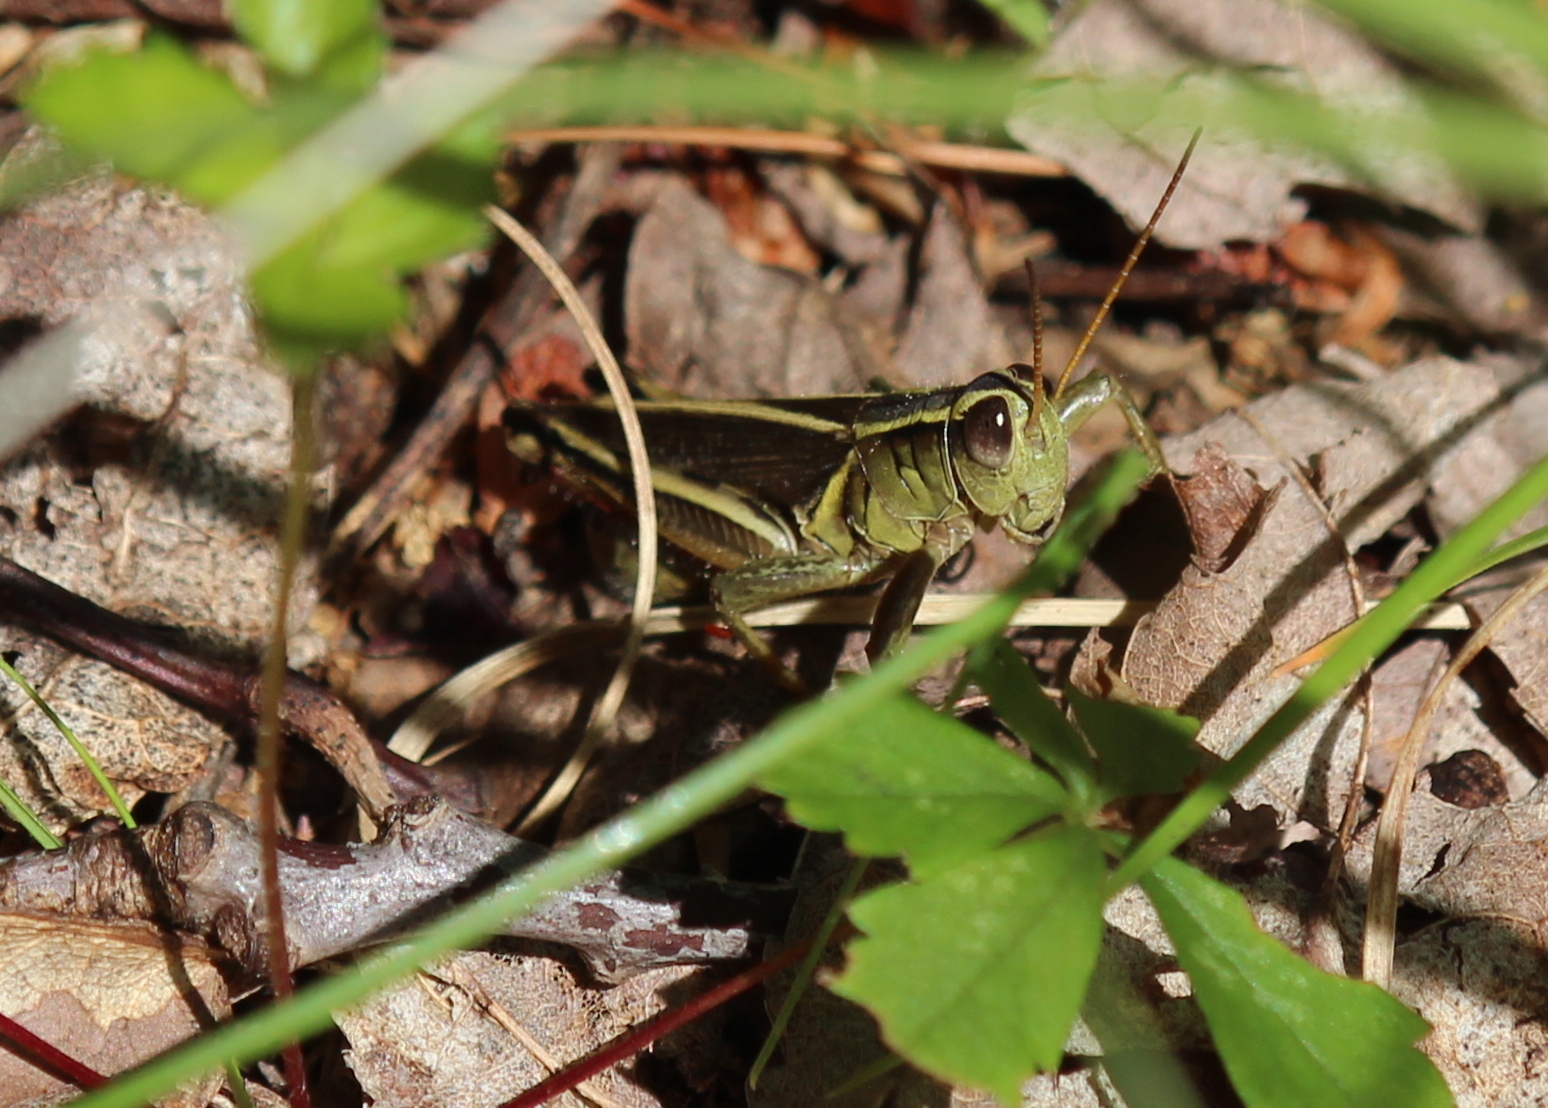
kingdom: Animalia
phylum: Arthropoda
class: Insecta
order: Orthoptera
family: Acrididae
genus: Melanoplus
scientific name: Melanoplus bivittatus
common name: Two-striped grasshopper
